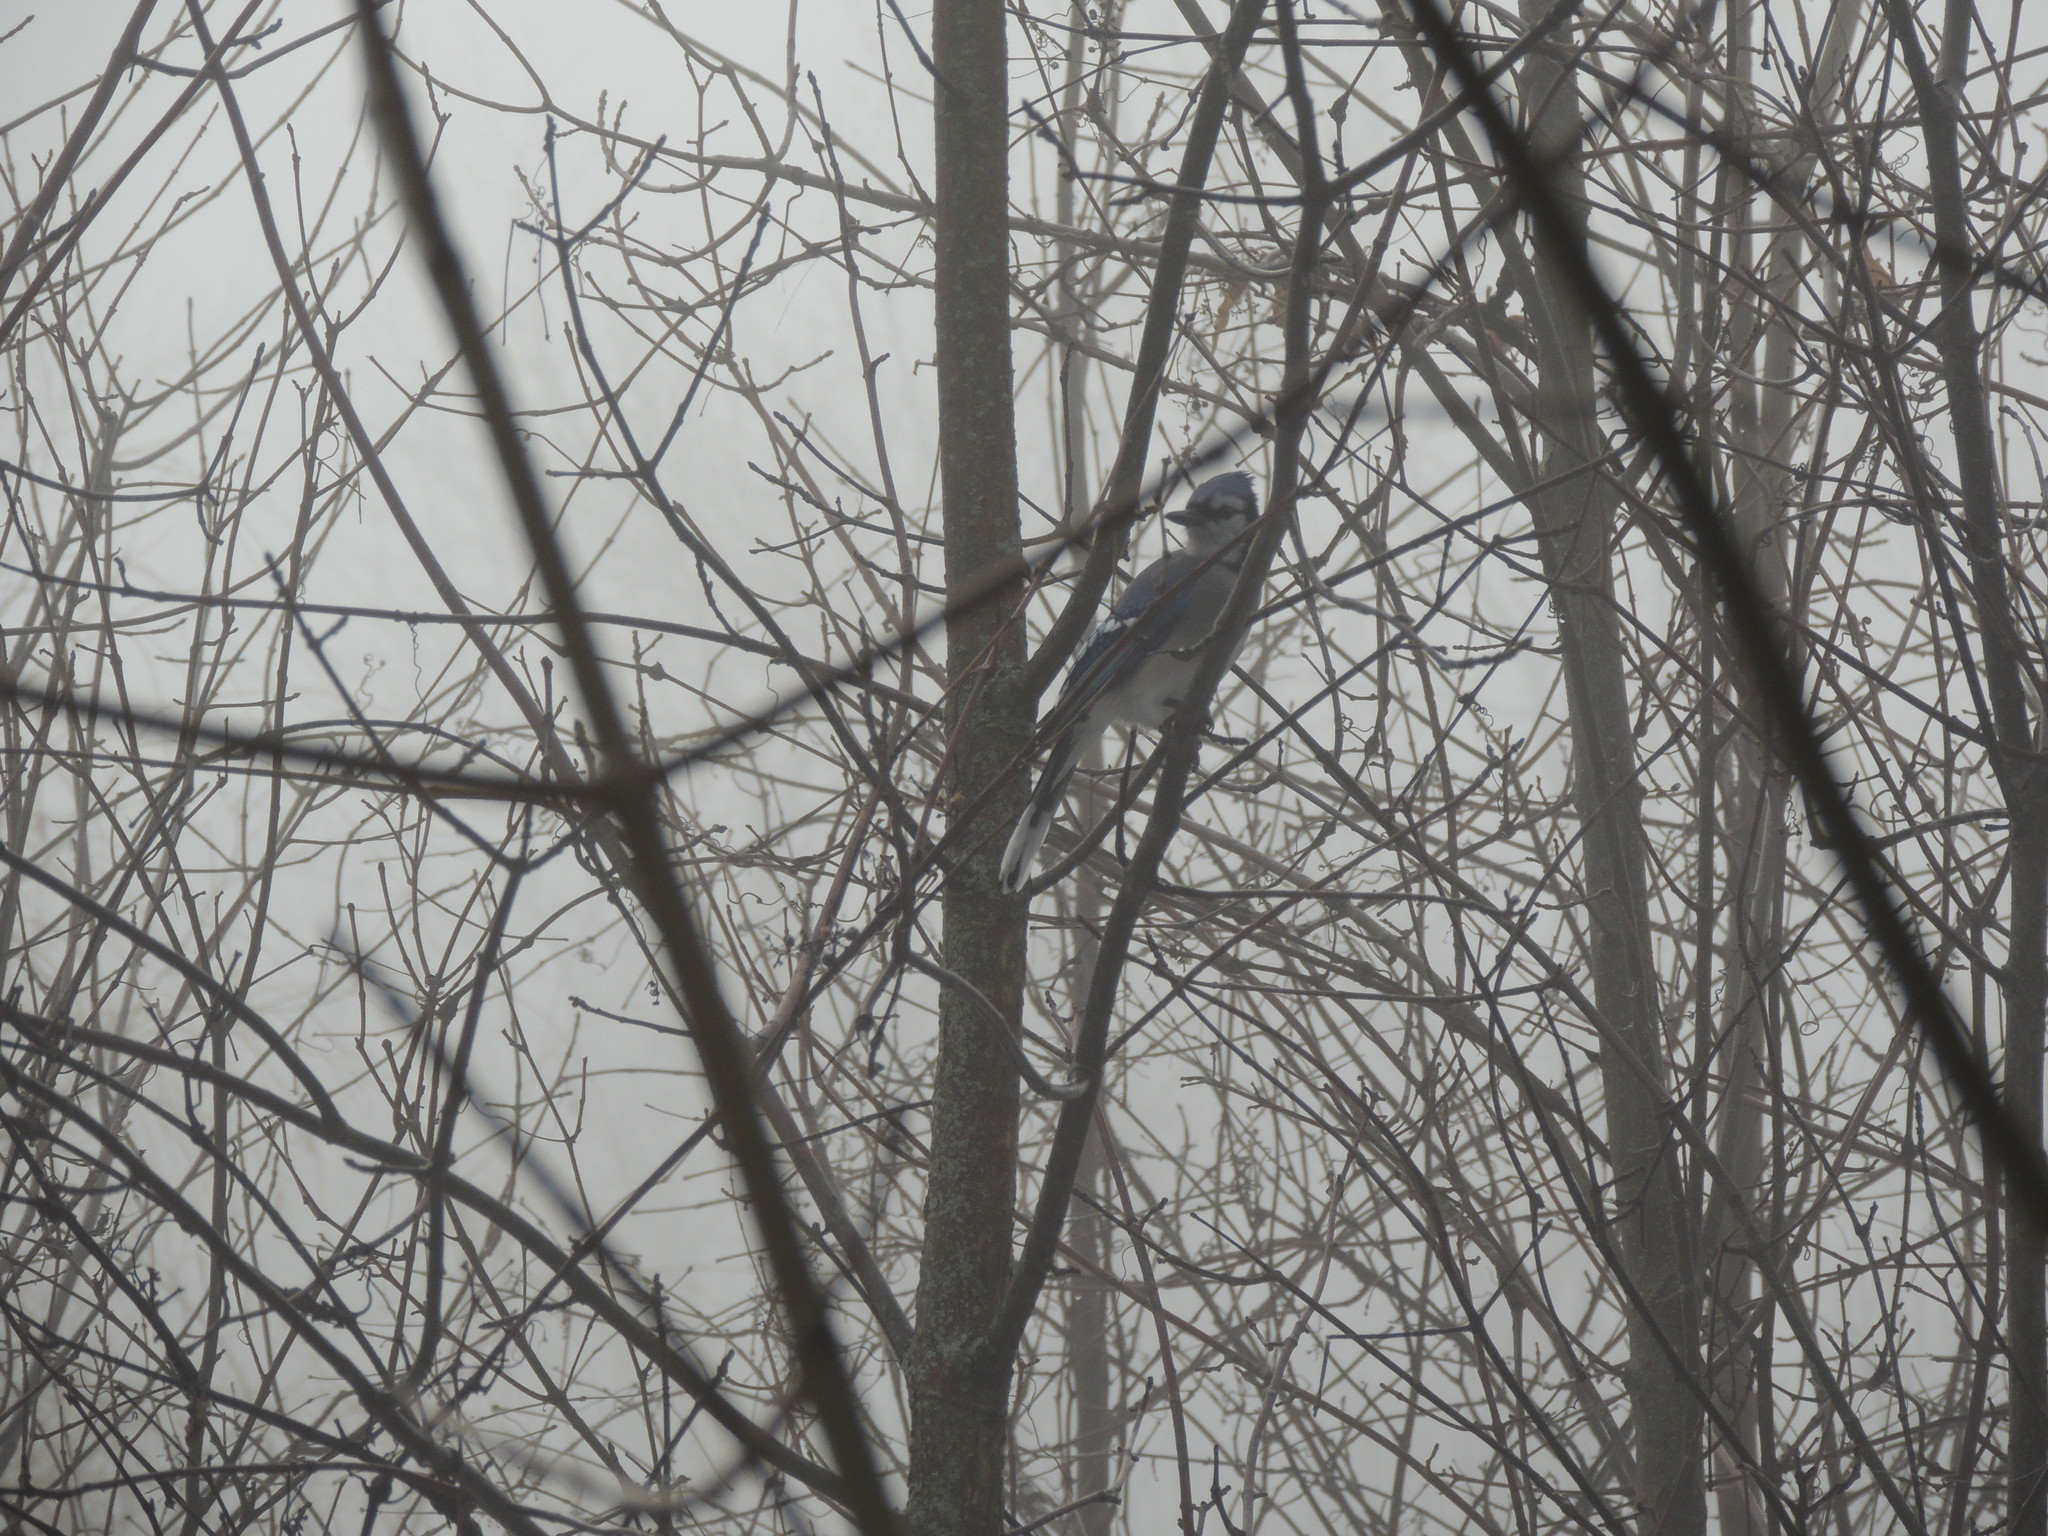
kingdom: Animalia
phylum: Chordata
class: Aves
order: Passeriformes
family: Corvidae
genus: Cyanocitta
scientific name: Cyanocitta cristata
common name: Blue jay
